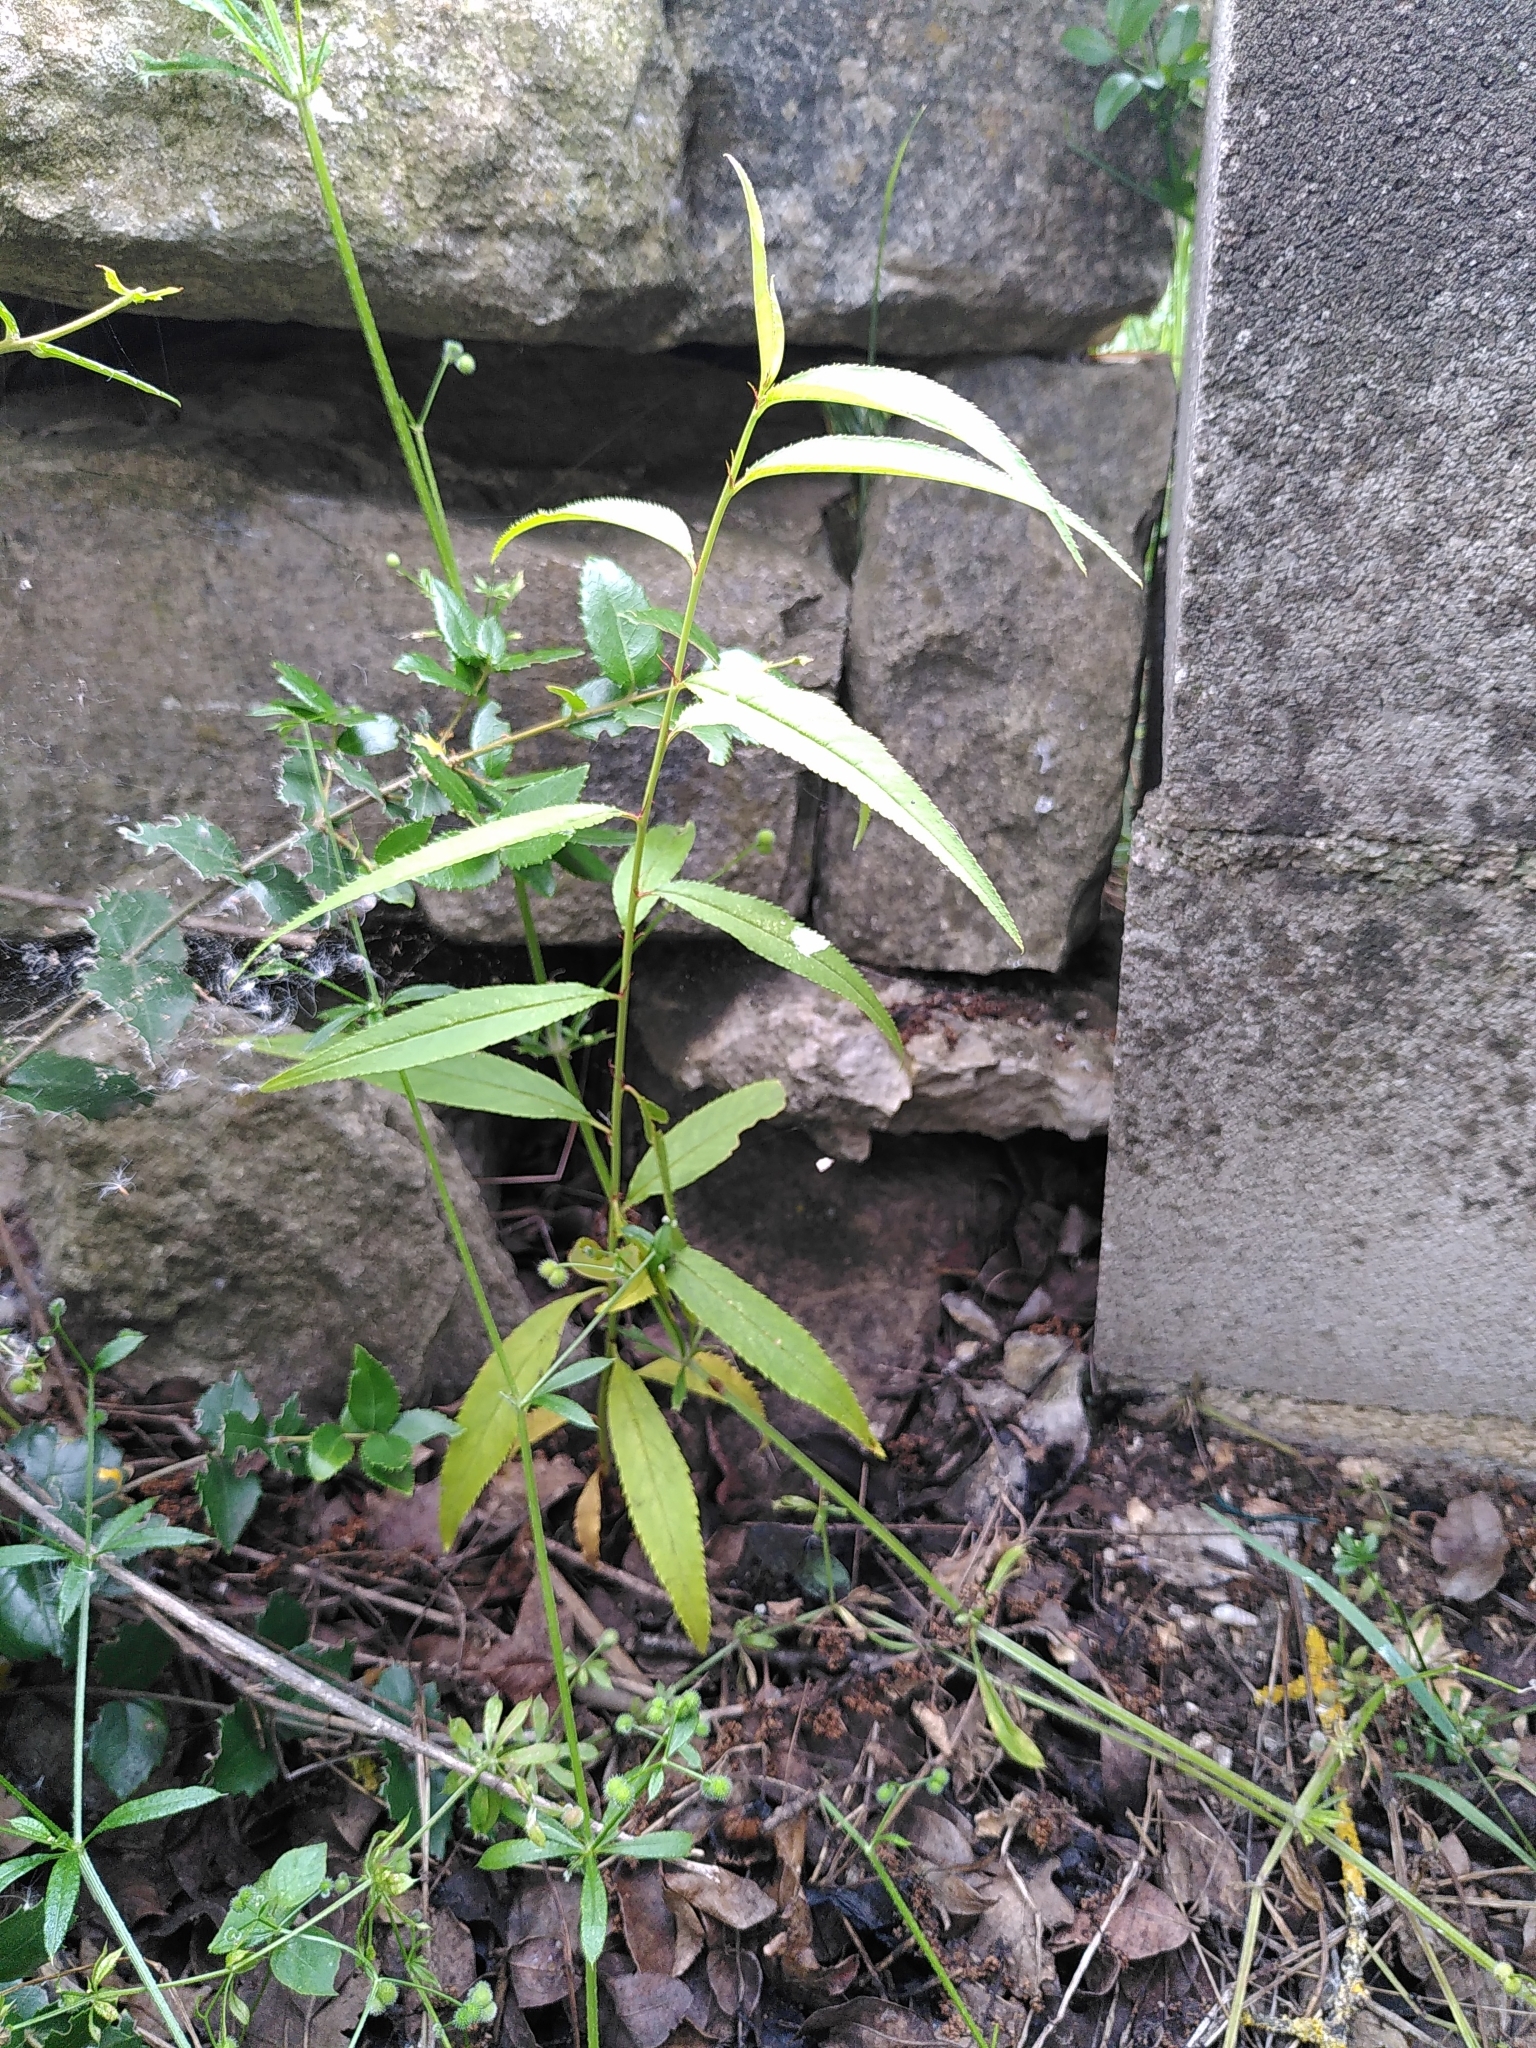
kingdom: Plantae
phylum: Tracheophyta
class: Magnoliopsida
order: Rosales
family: Rosaceae
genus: Prunus
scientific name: Prunus persica
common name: Peach
